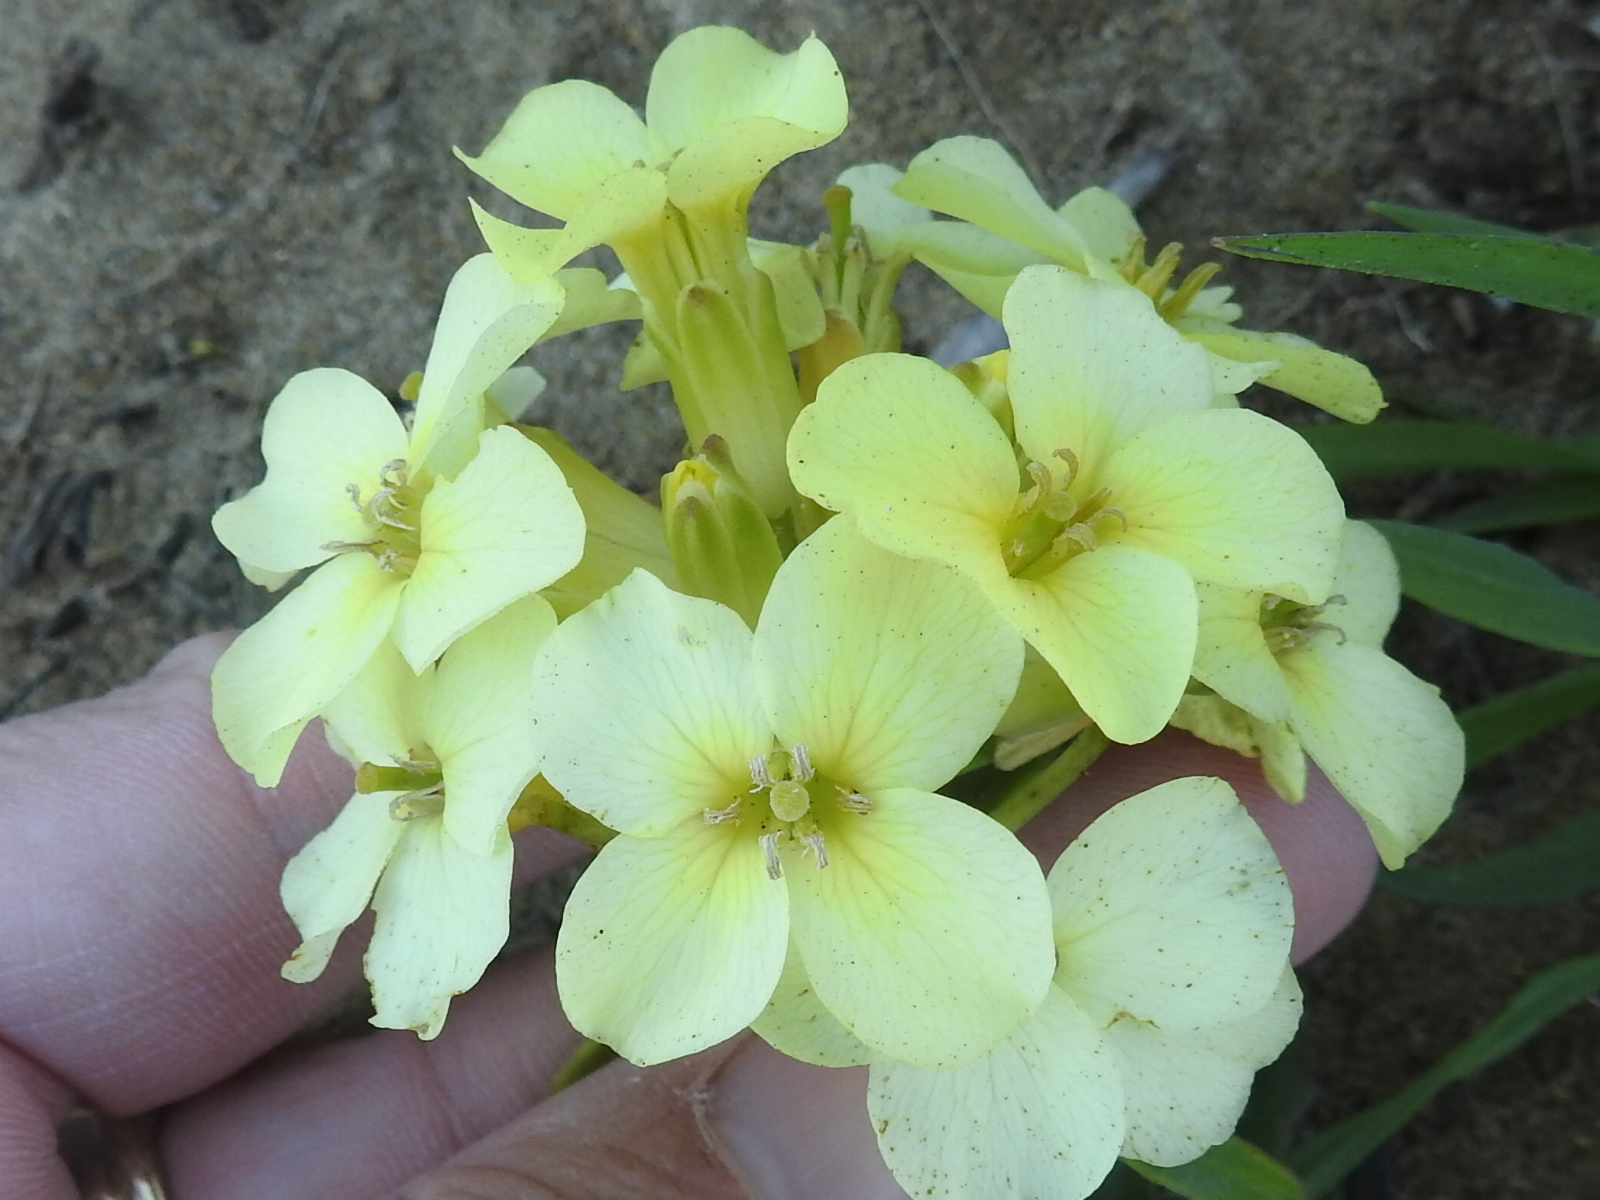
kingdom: Plantae
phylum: Tracheophyta
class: Magnoliopsida
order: Brassicales
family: Brassicaceae
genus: Erysimum
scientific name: Erysimum concinnum
